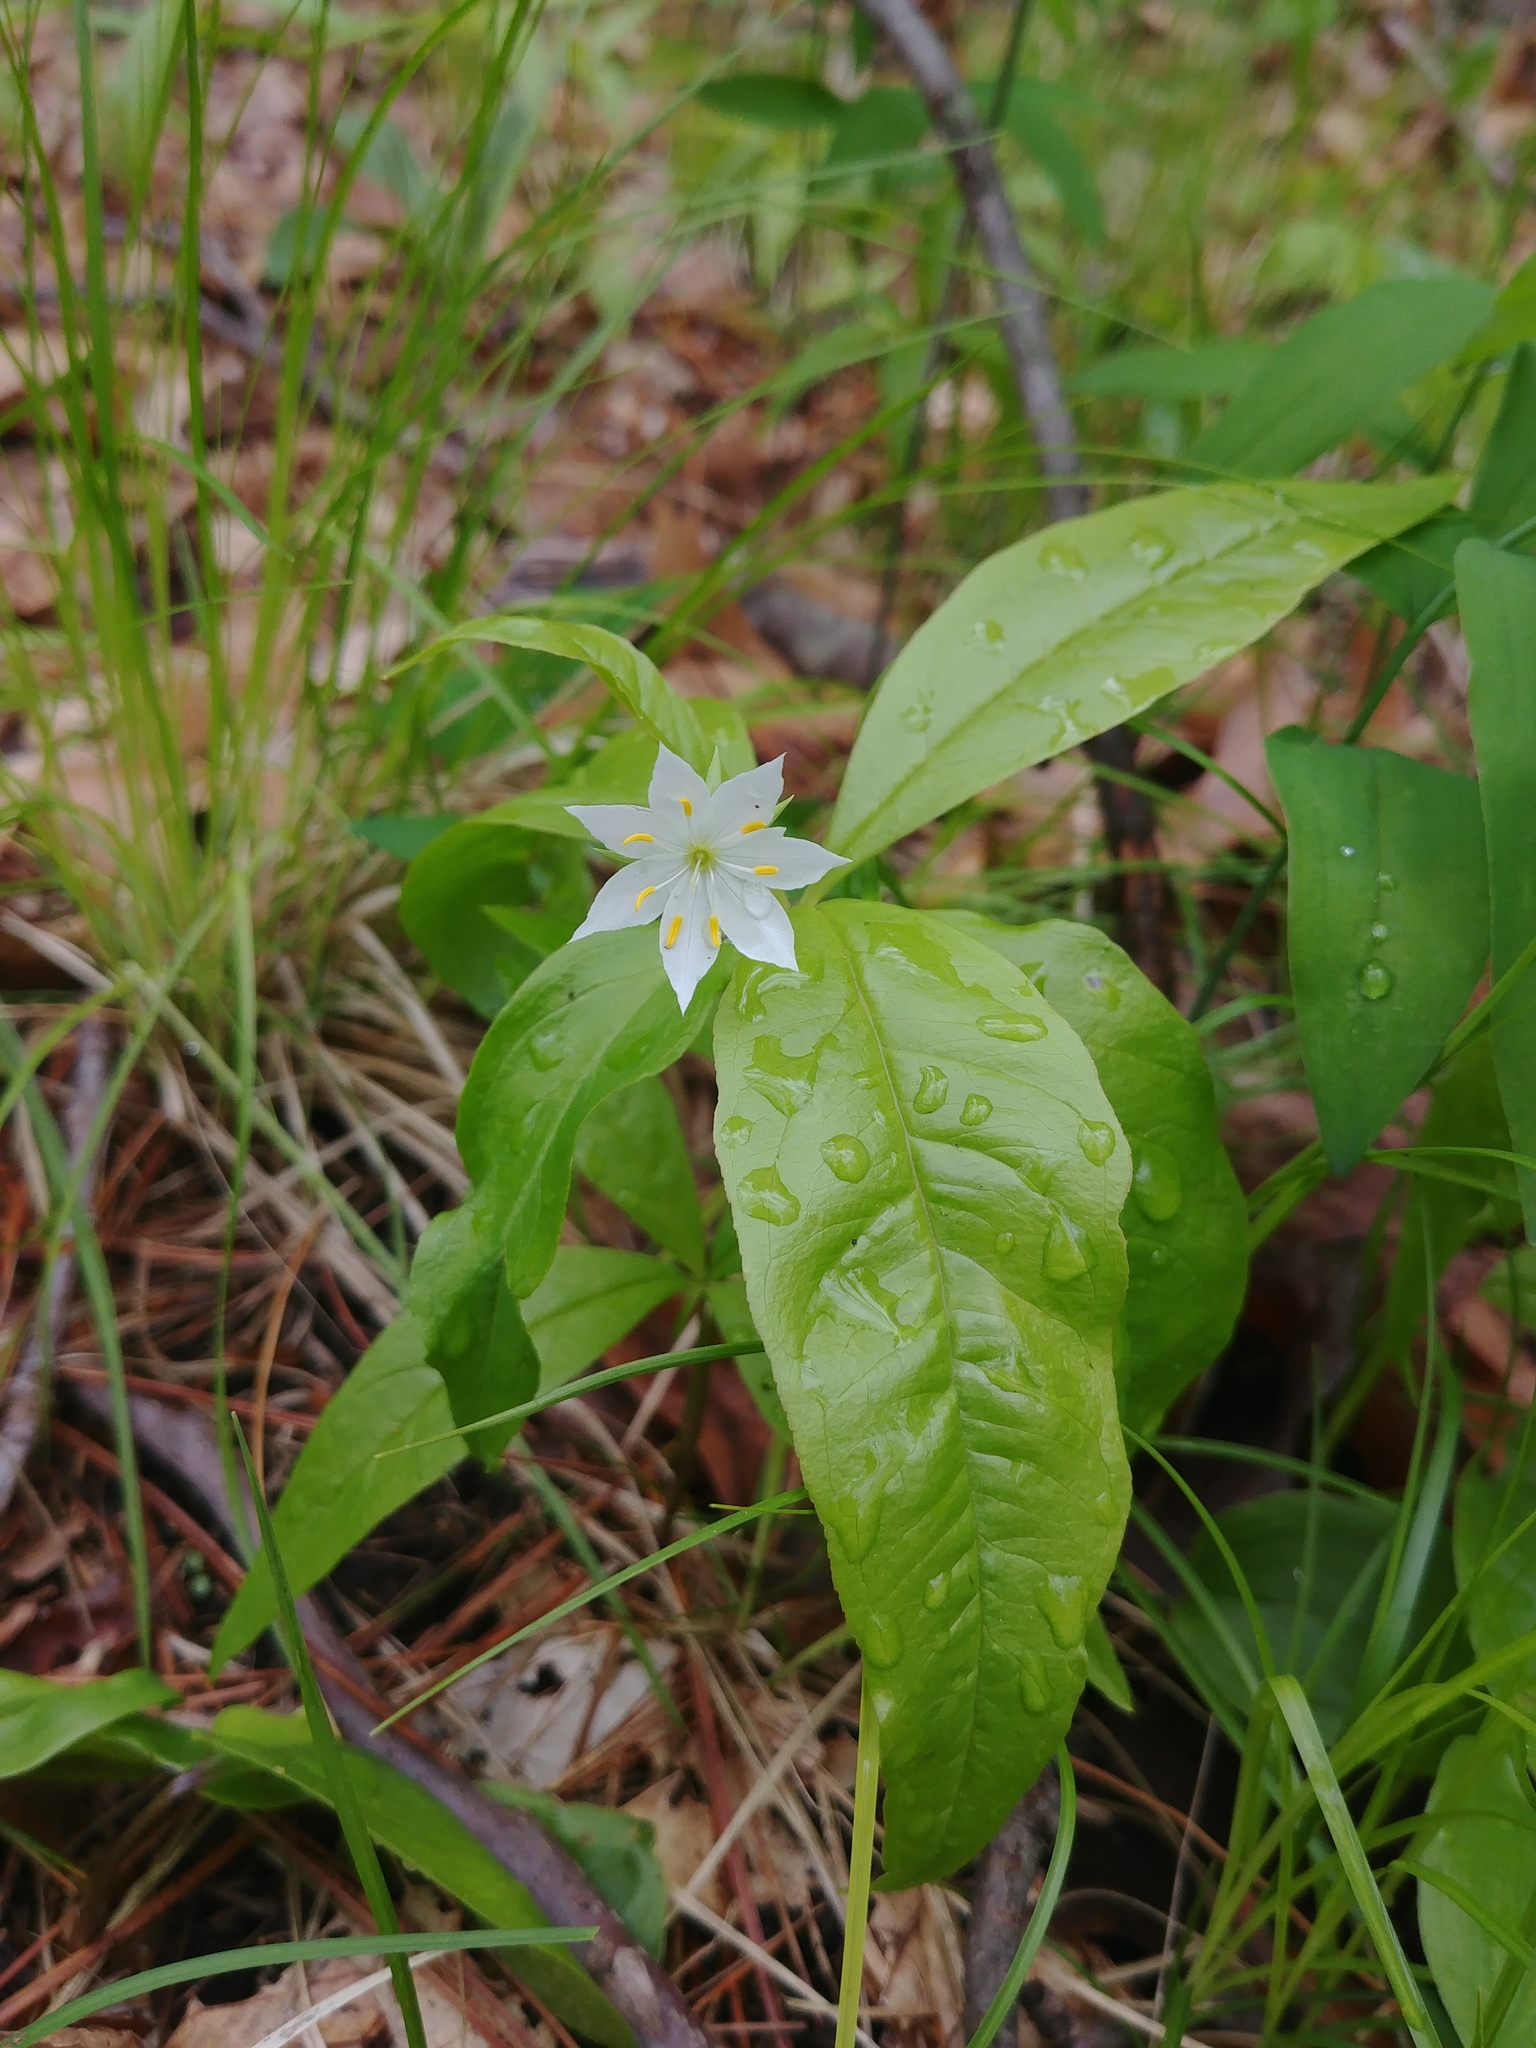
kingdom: Plantae
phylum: Tracheophyta
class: Magnoliopsida
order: Ericales
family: Primulaceae
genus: Lysimachia
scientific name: Lysimachia borealis
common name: American starflower
